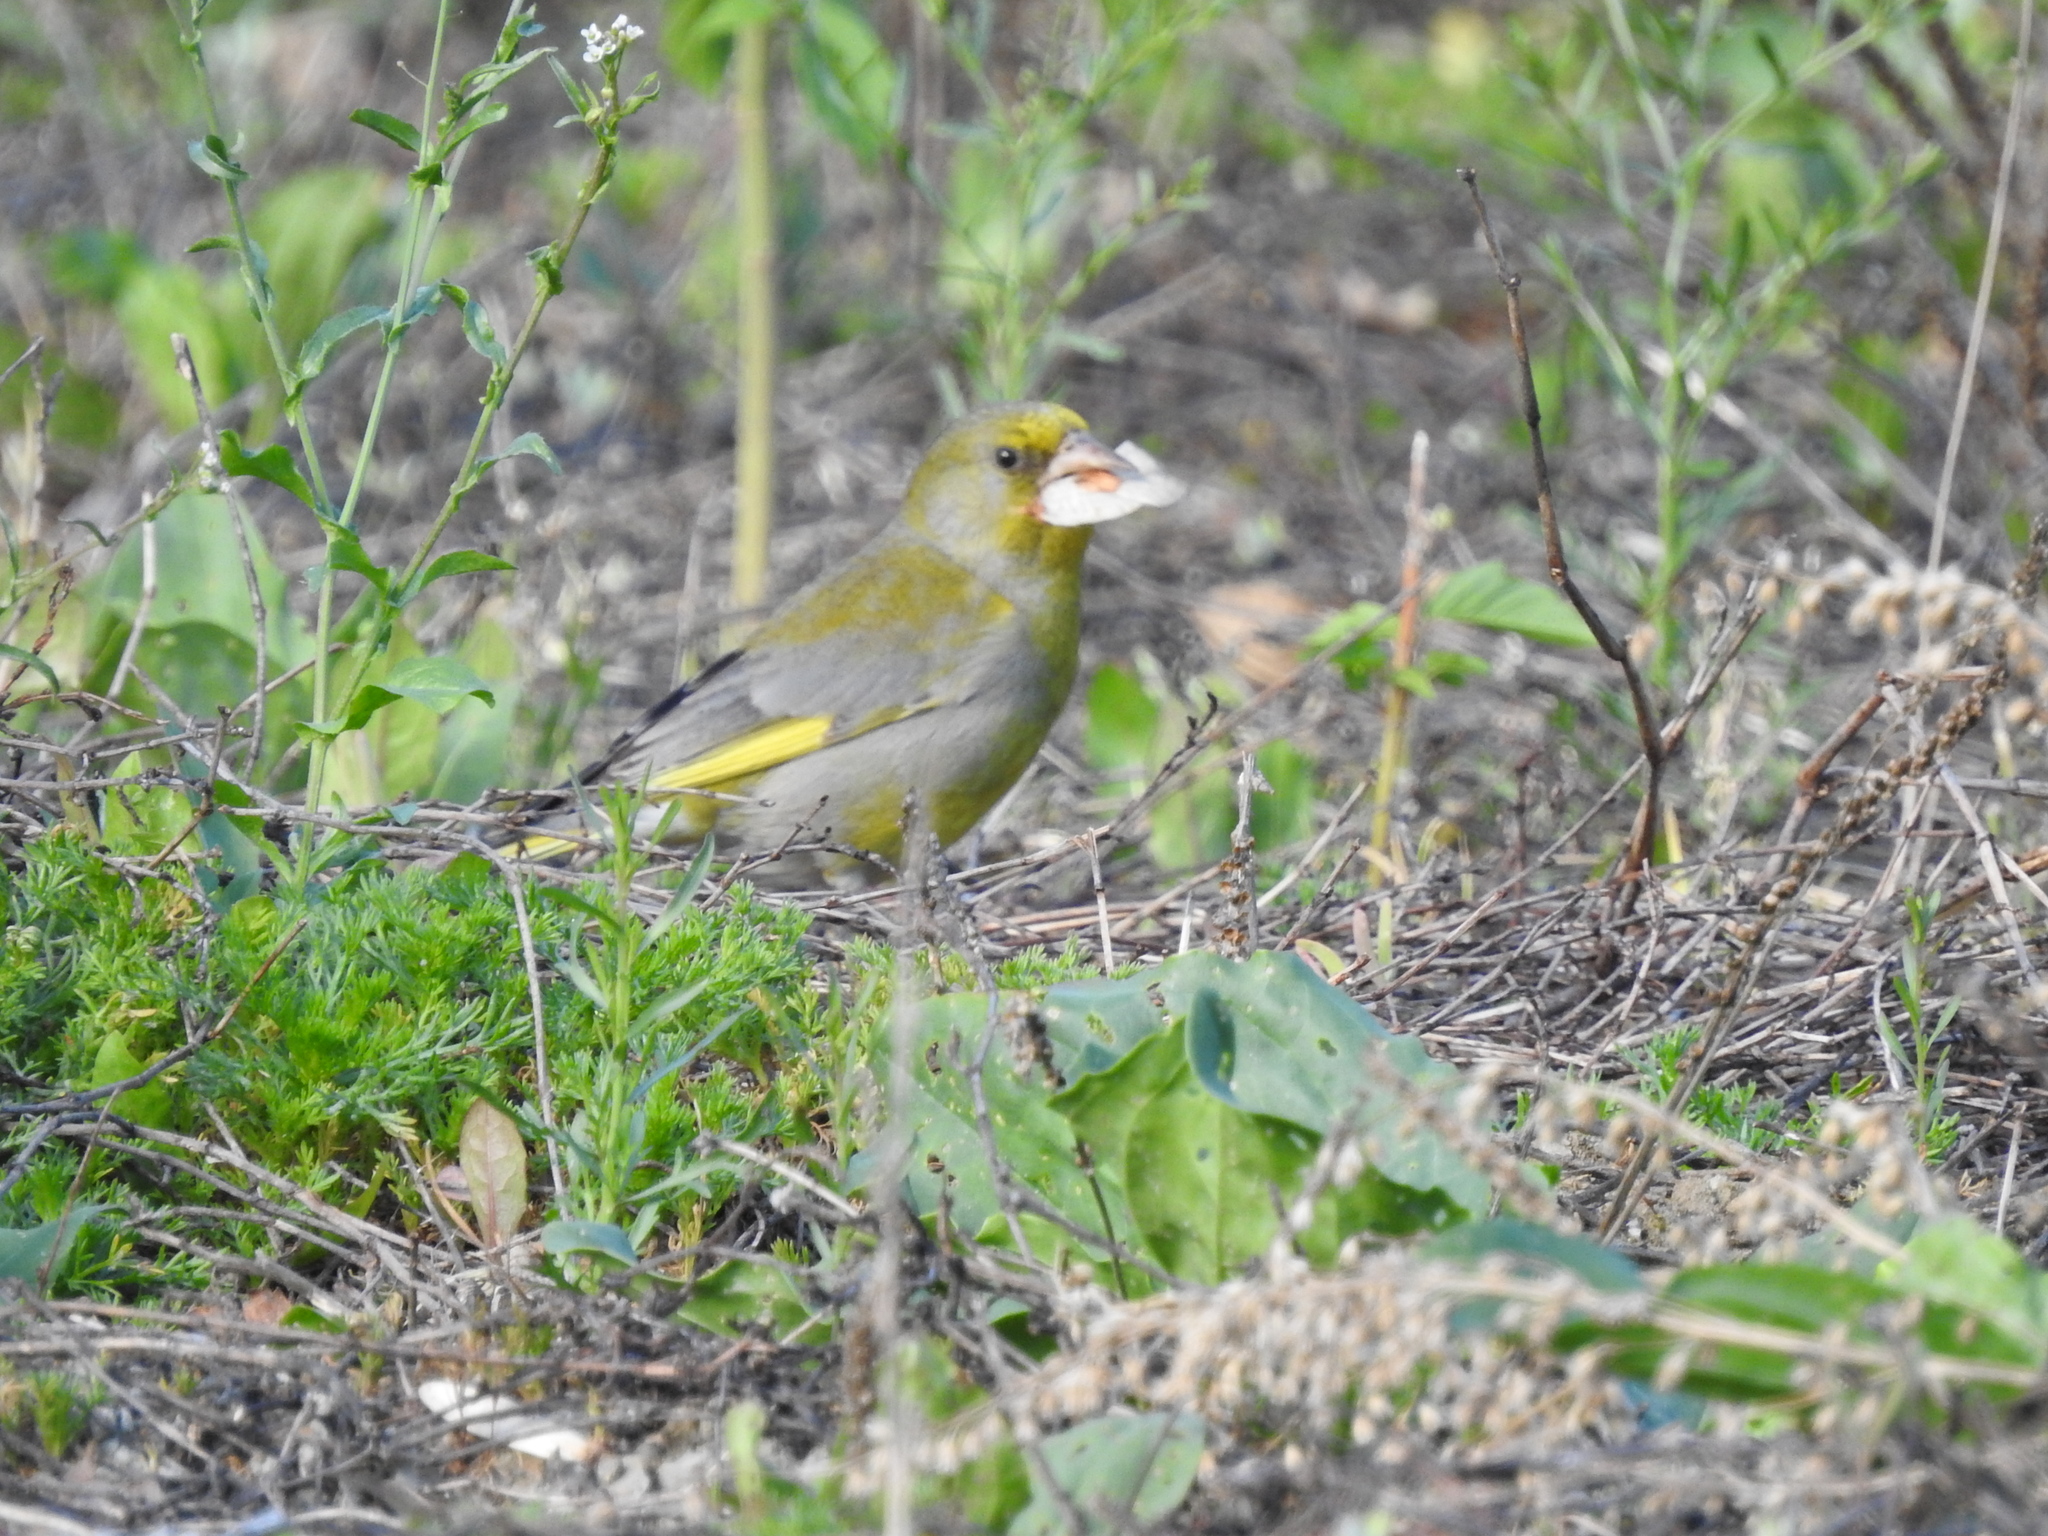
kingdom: Plantae
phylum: Tracheophyta
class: Liliopsida
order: Poales
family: Poaceae
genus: Chloris
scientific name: Chloris chloris
